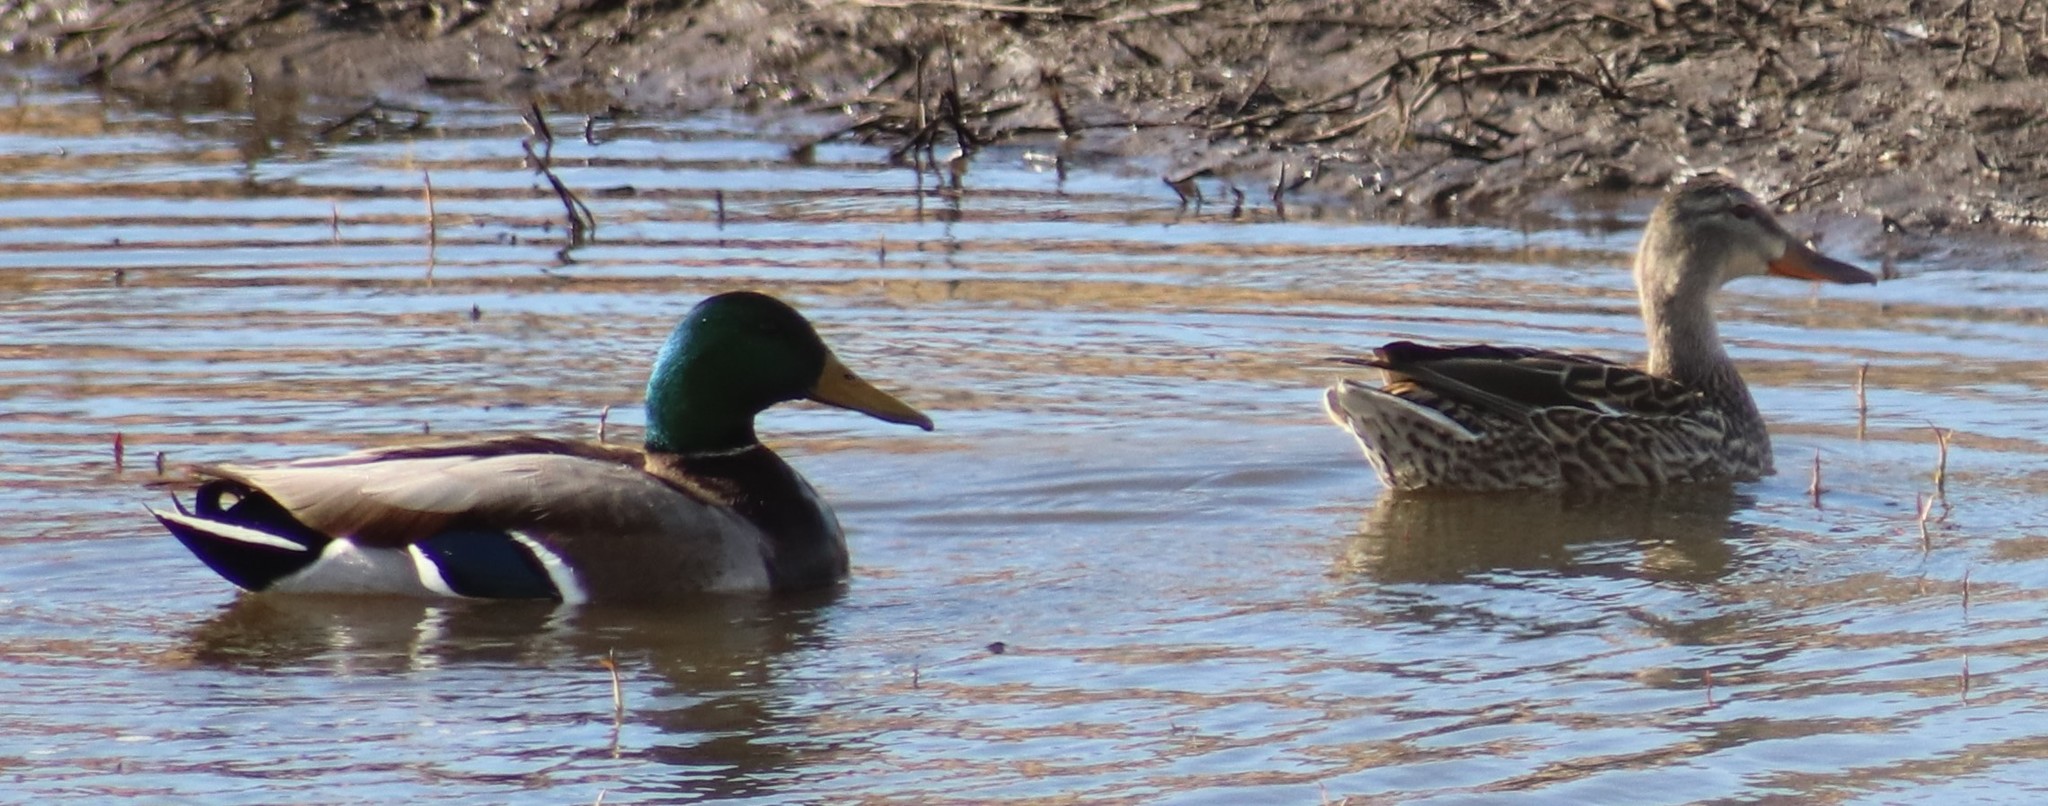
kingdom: Animalia
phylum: Chordata
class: Aves
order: Anseriformes
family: Anatidae
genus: Anas
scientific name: Anas platyrhynchos
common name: Mallard
